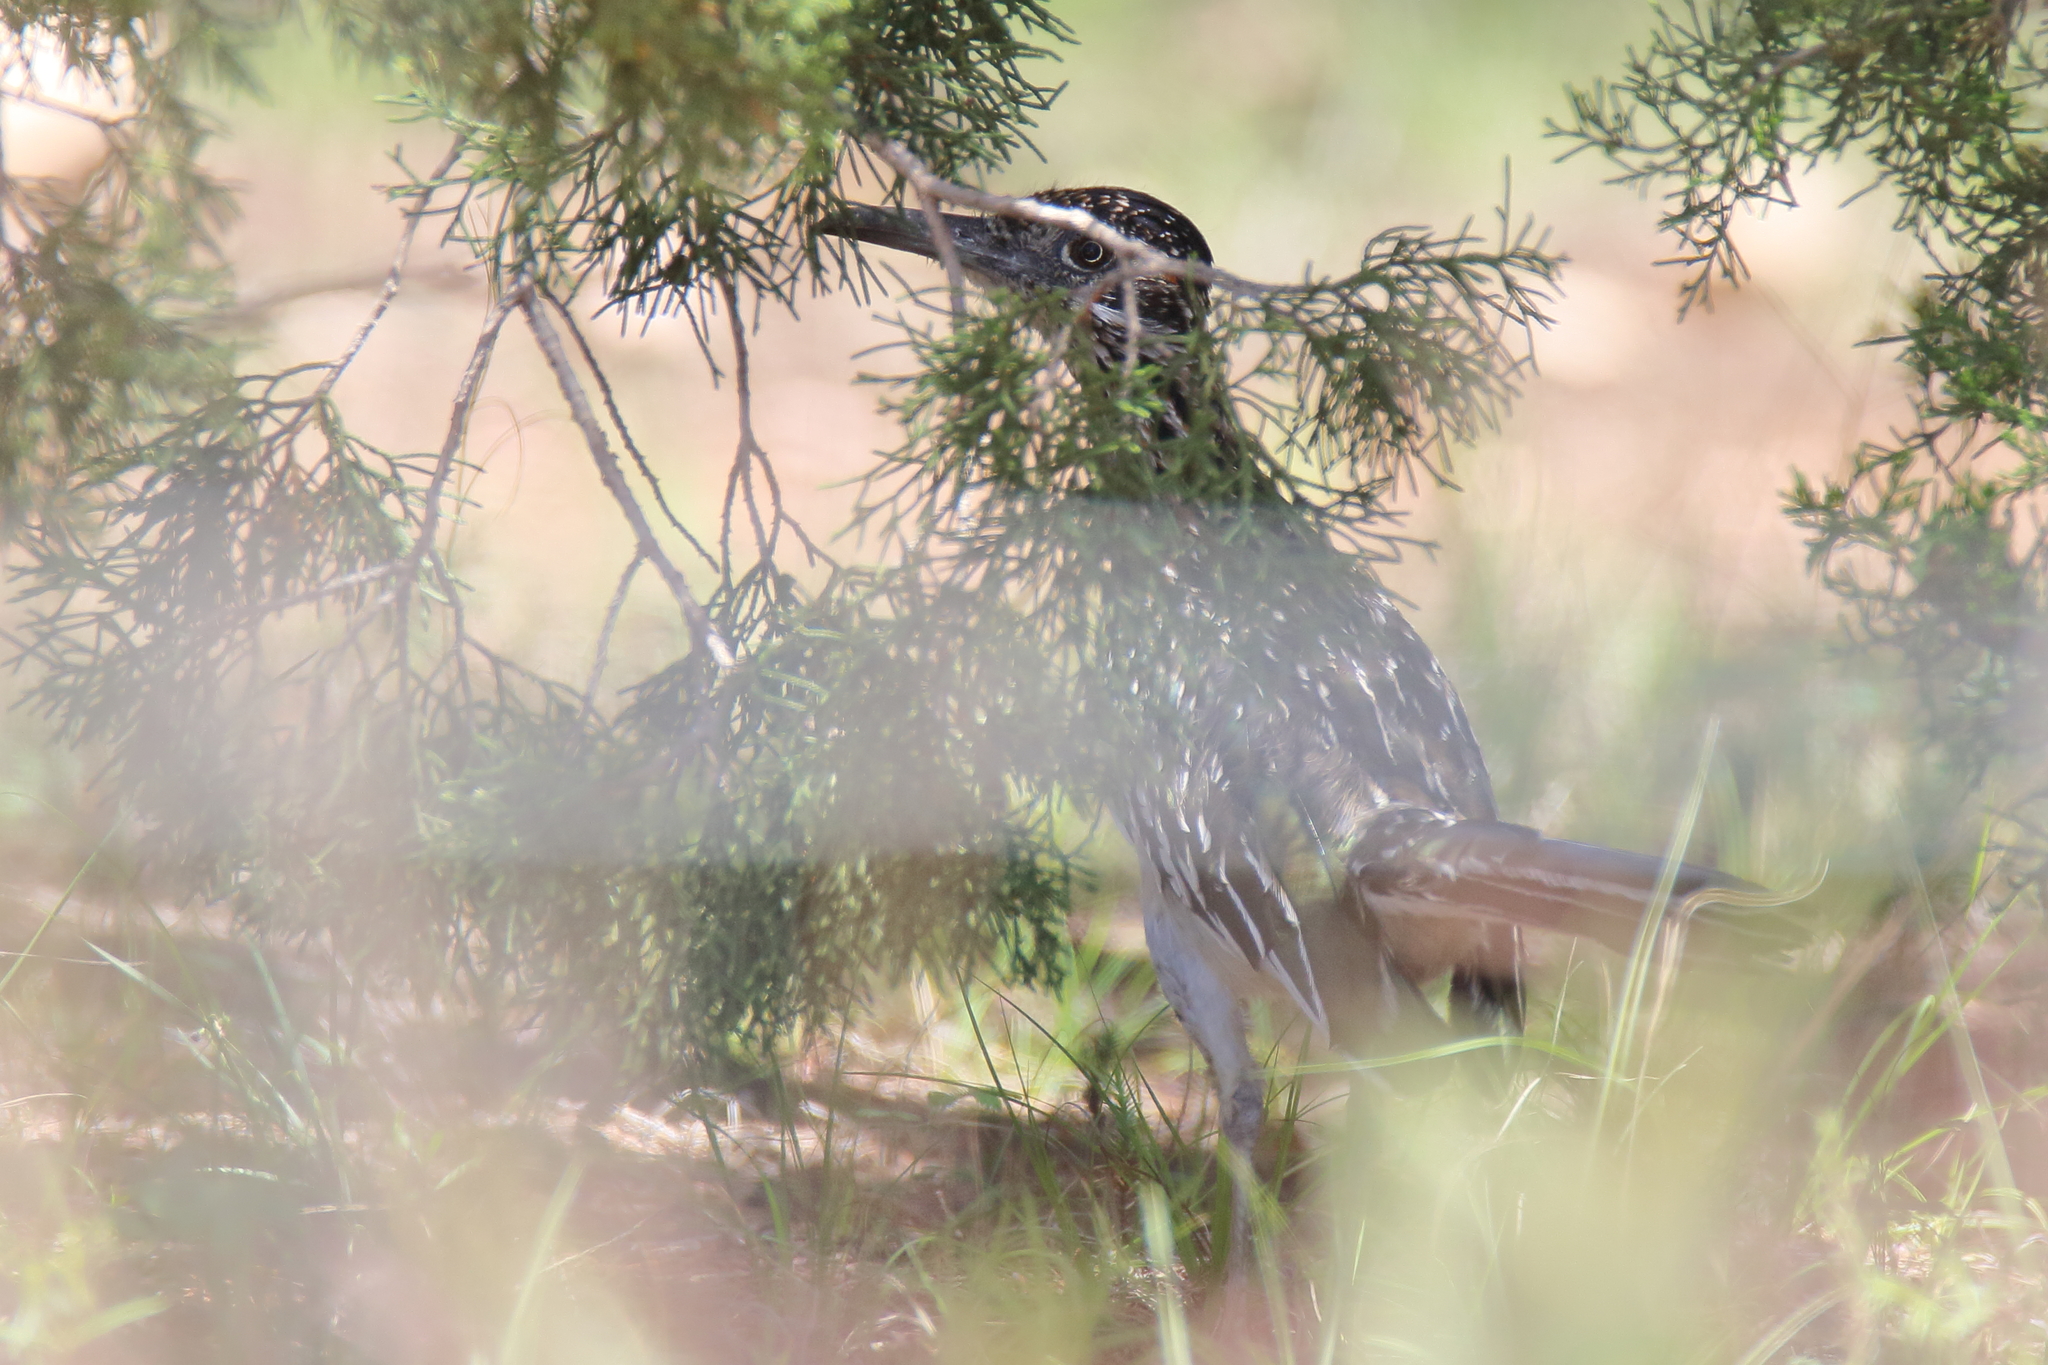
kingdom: Animalia
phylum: Chordata
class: Aves
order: Cuculiformes
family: Cuculidae
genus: Geococcyx
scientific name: Geococcyx californianus
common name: Greater roadrunner
